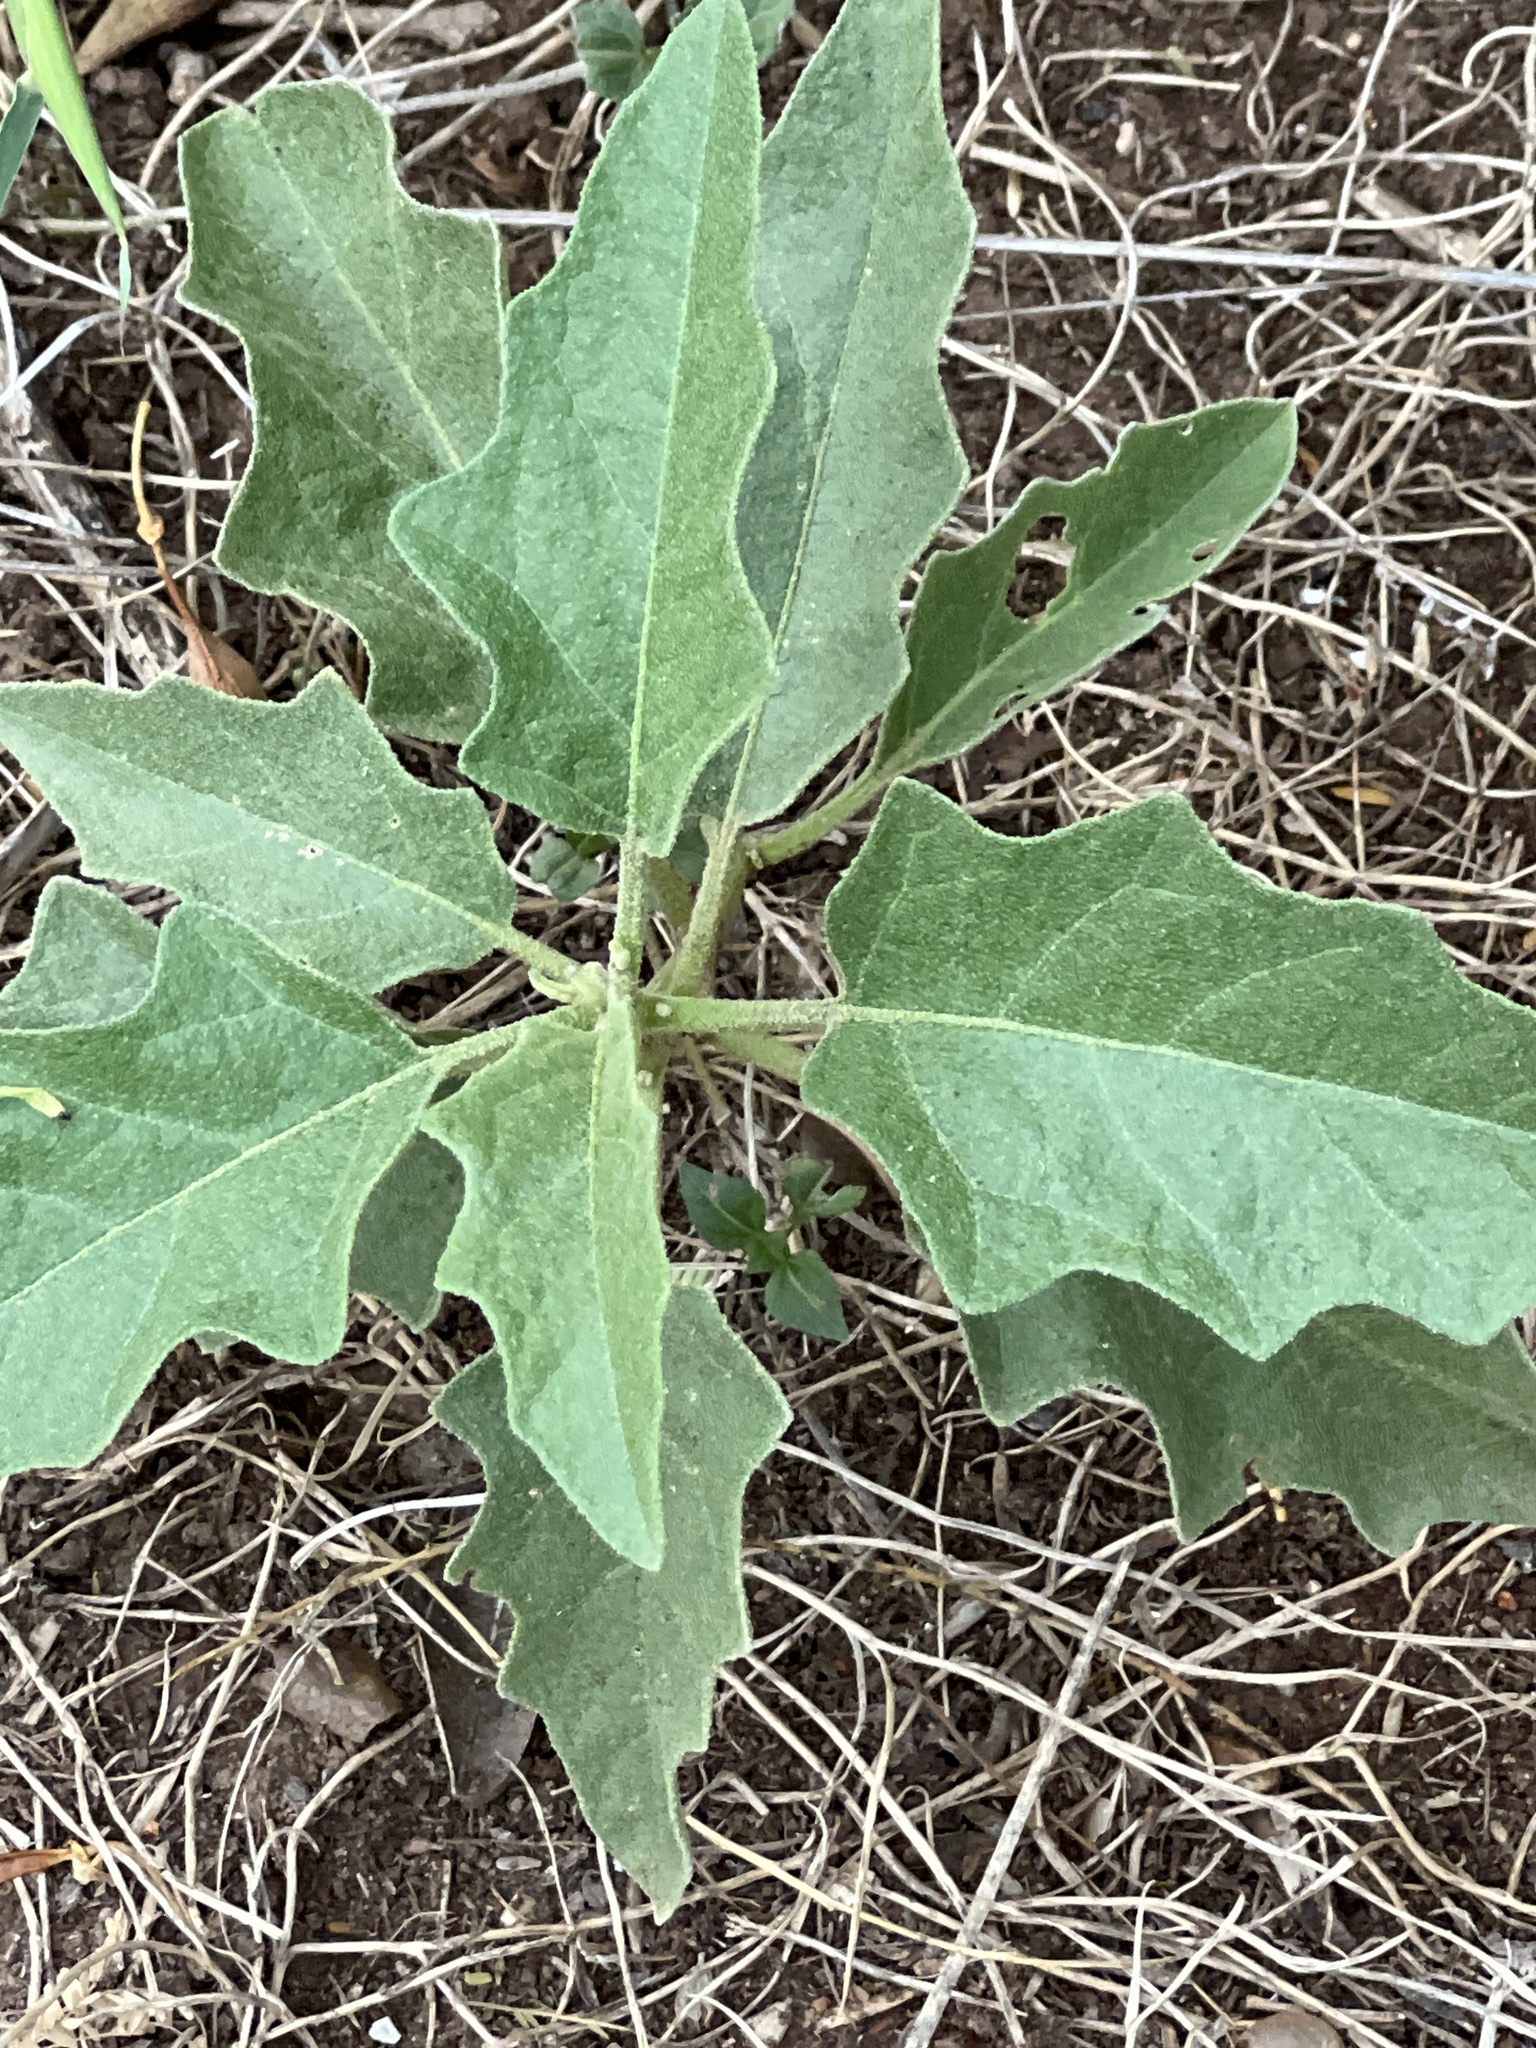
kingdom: Plantae
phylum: Tracheophyta
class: Magnoliopsida
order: Solanales
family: Solanaceae
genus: Solanum
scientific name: Solanum dimidiatum
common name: Carolina horse-nettle
